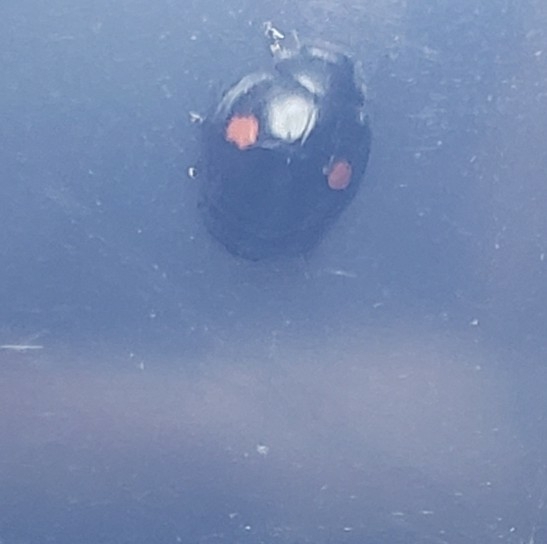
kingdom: Animalia
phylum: Arthropoda
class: Insecta
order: Coleoptera
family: Coccinellidae
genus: Chilocorus
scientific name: Chilocorus stigma
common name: Twicestabbed lady beetle
